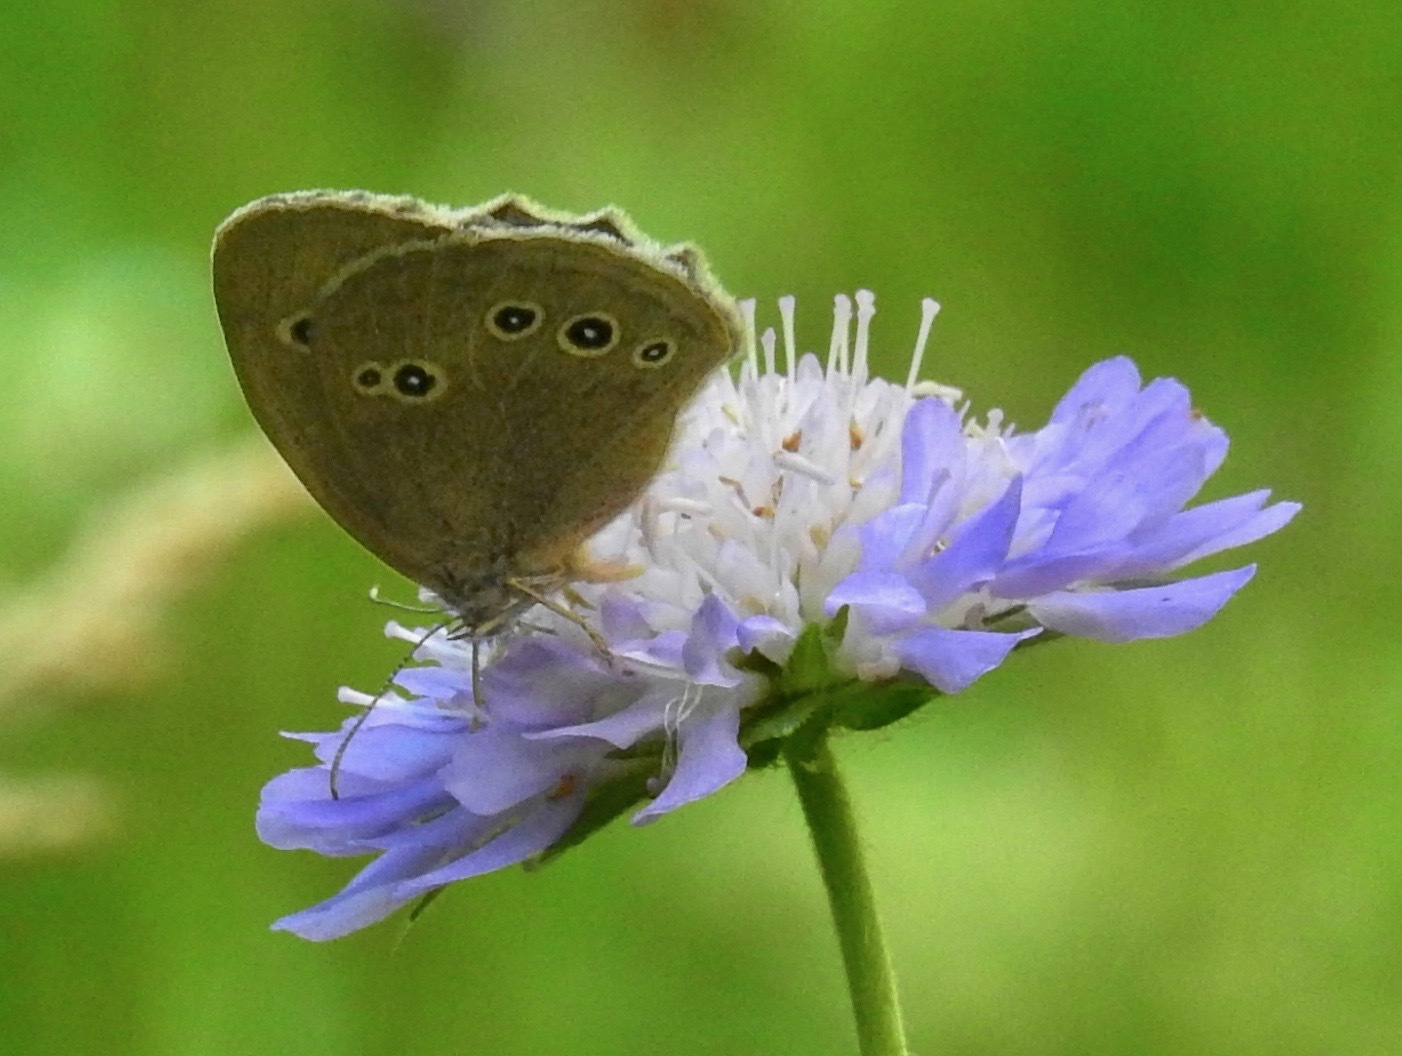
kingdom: Animalia
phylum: Arthropoda
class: Insecta
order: Lepidoptera
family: Nymphalidae
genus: Aphantopus
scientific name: Aphantopus hyperantus
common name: Ringlet
